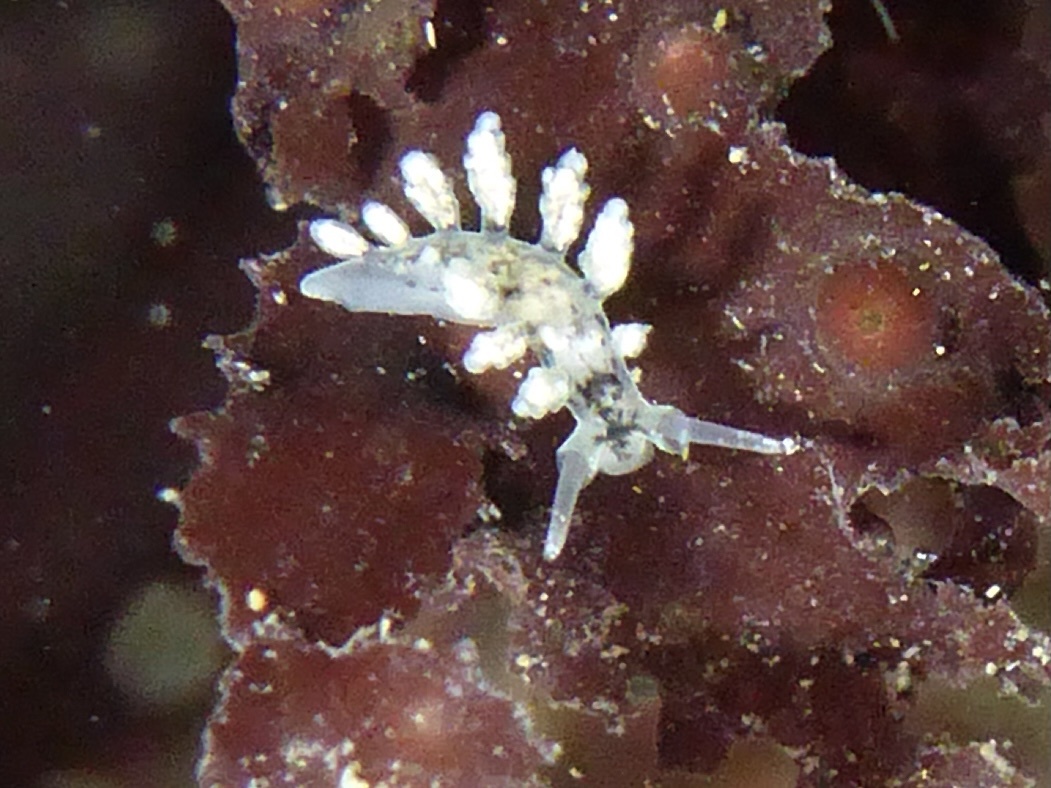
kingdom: Animalia
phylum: Mollusca
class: Gastropoda
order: Nudibranchia
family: Dotidae
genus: Doto
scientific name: Doto kya
